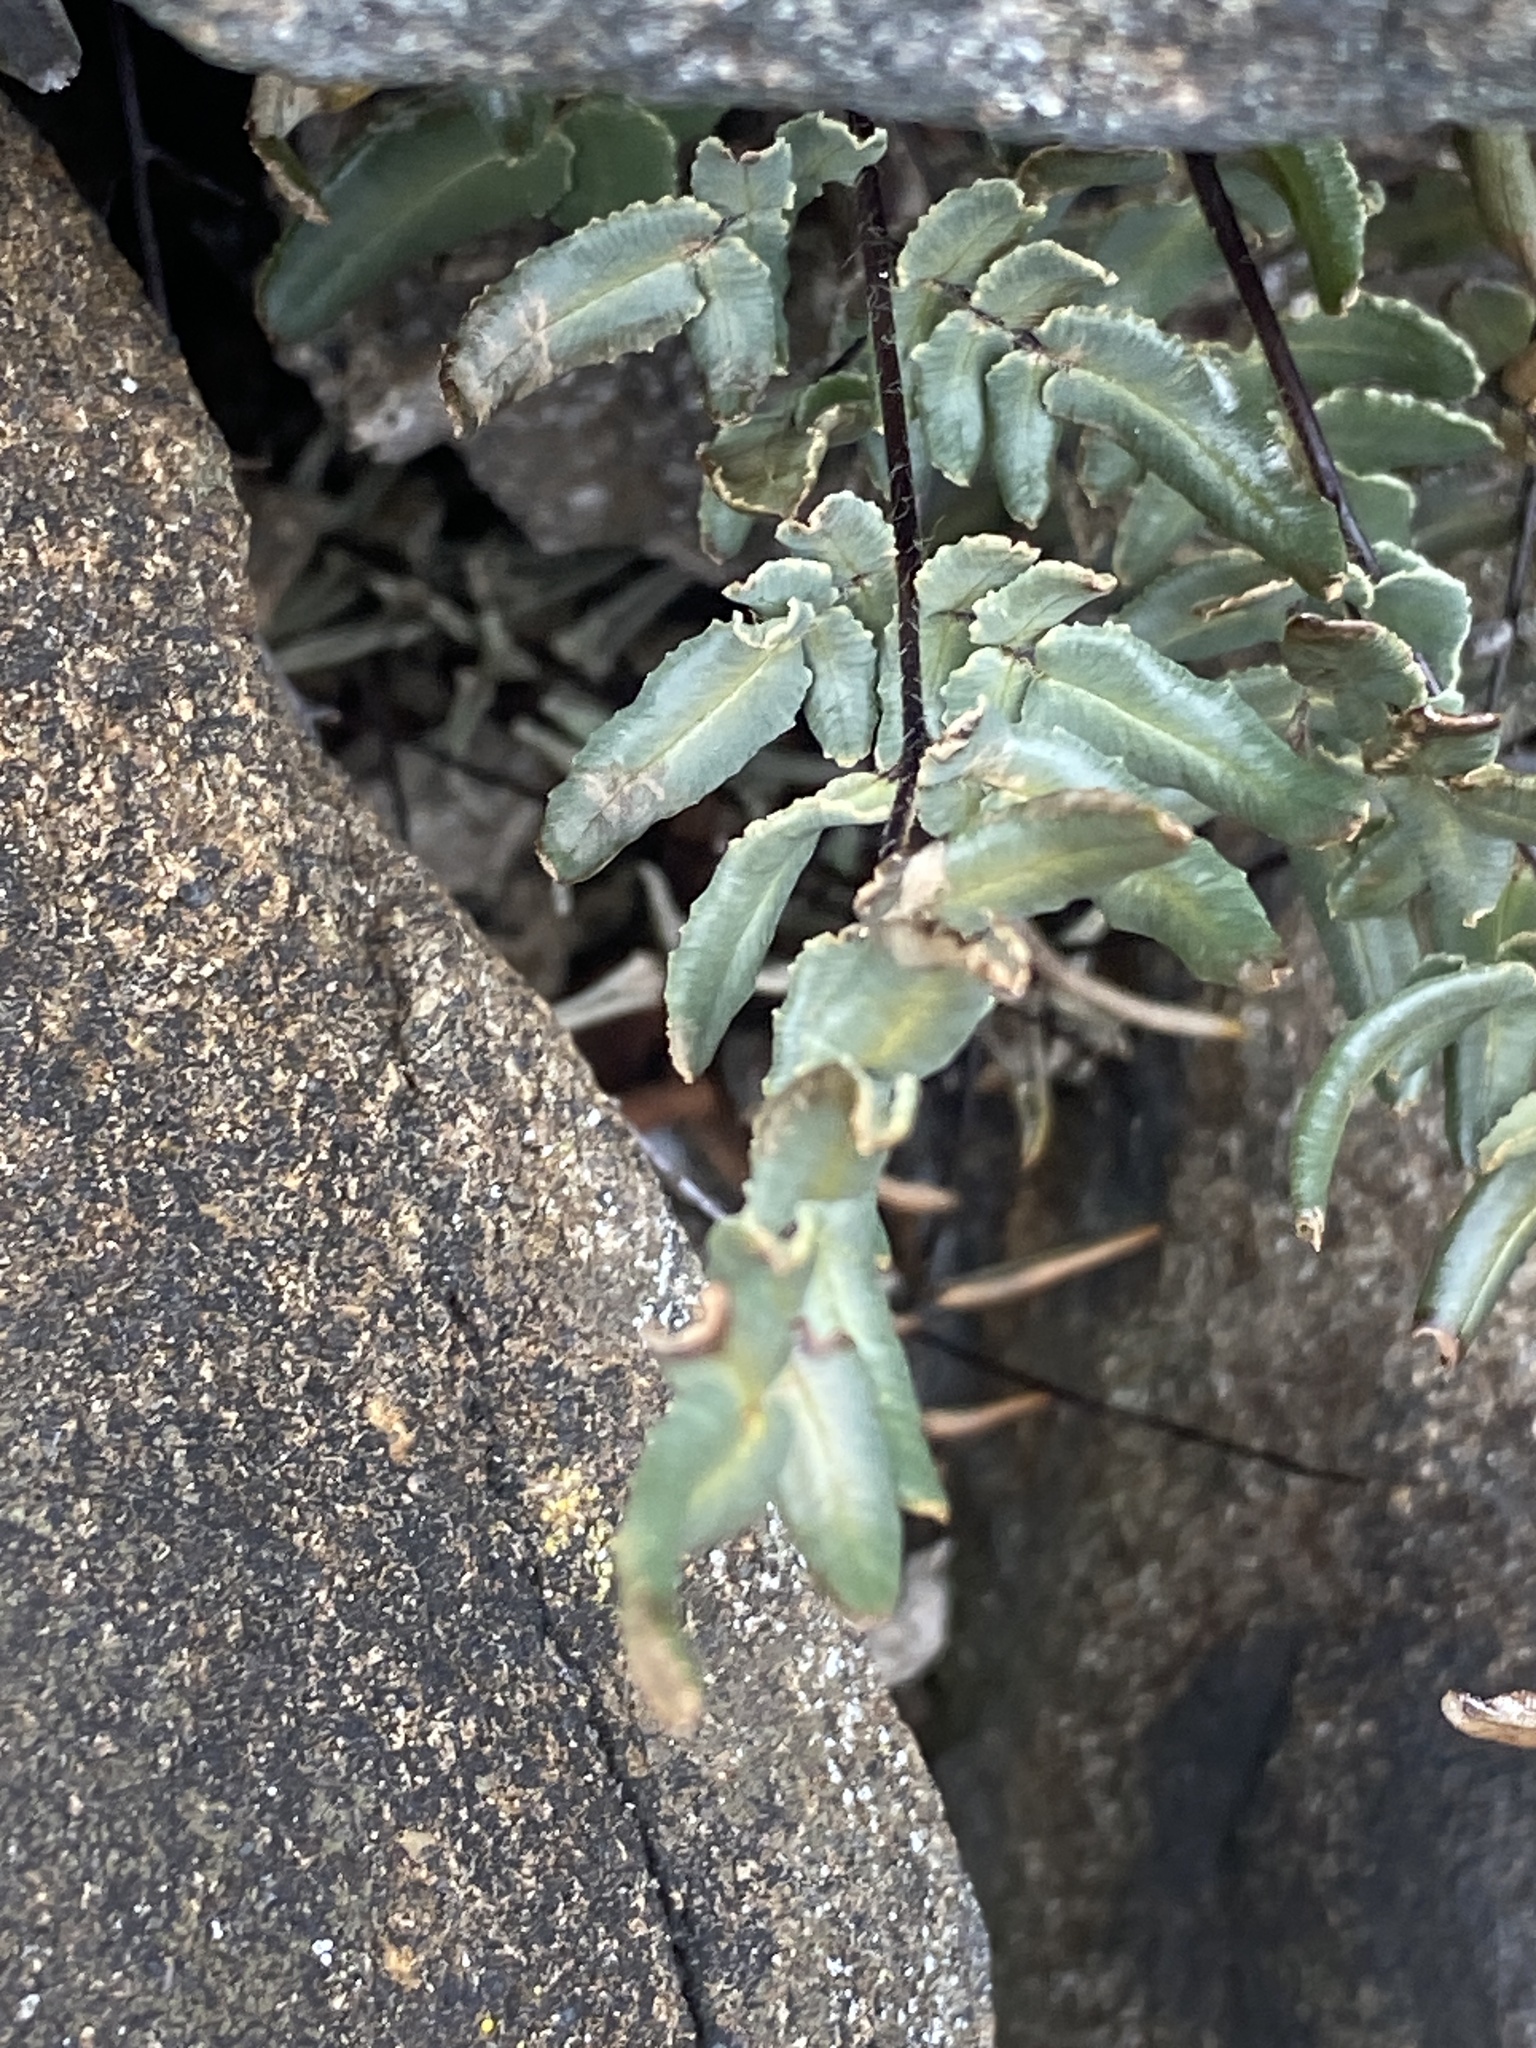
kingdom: Plantae
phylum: Tracheophyta
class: Polypodiopsida
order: Polypodiales
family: Pteridaceae
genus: Pellaea
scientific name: Pellaea atropurpurea
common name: Hairy cliffbrake
